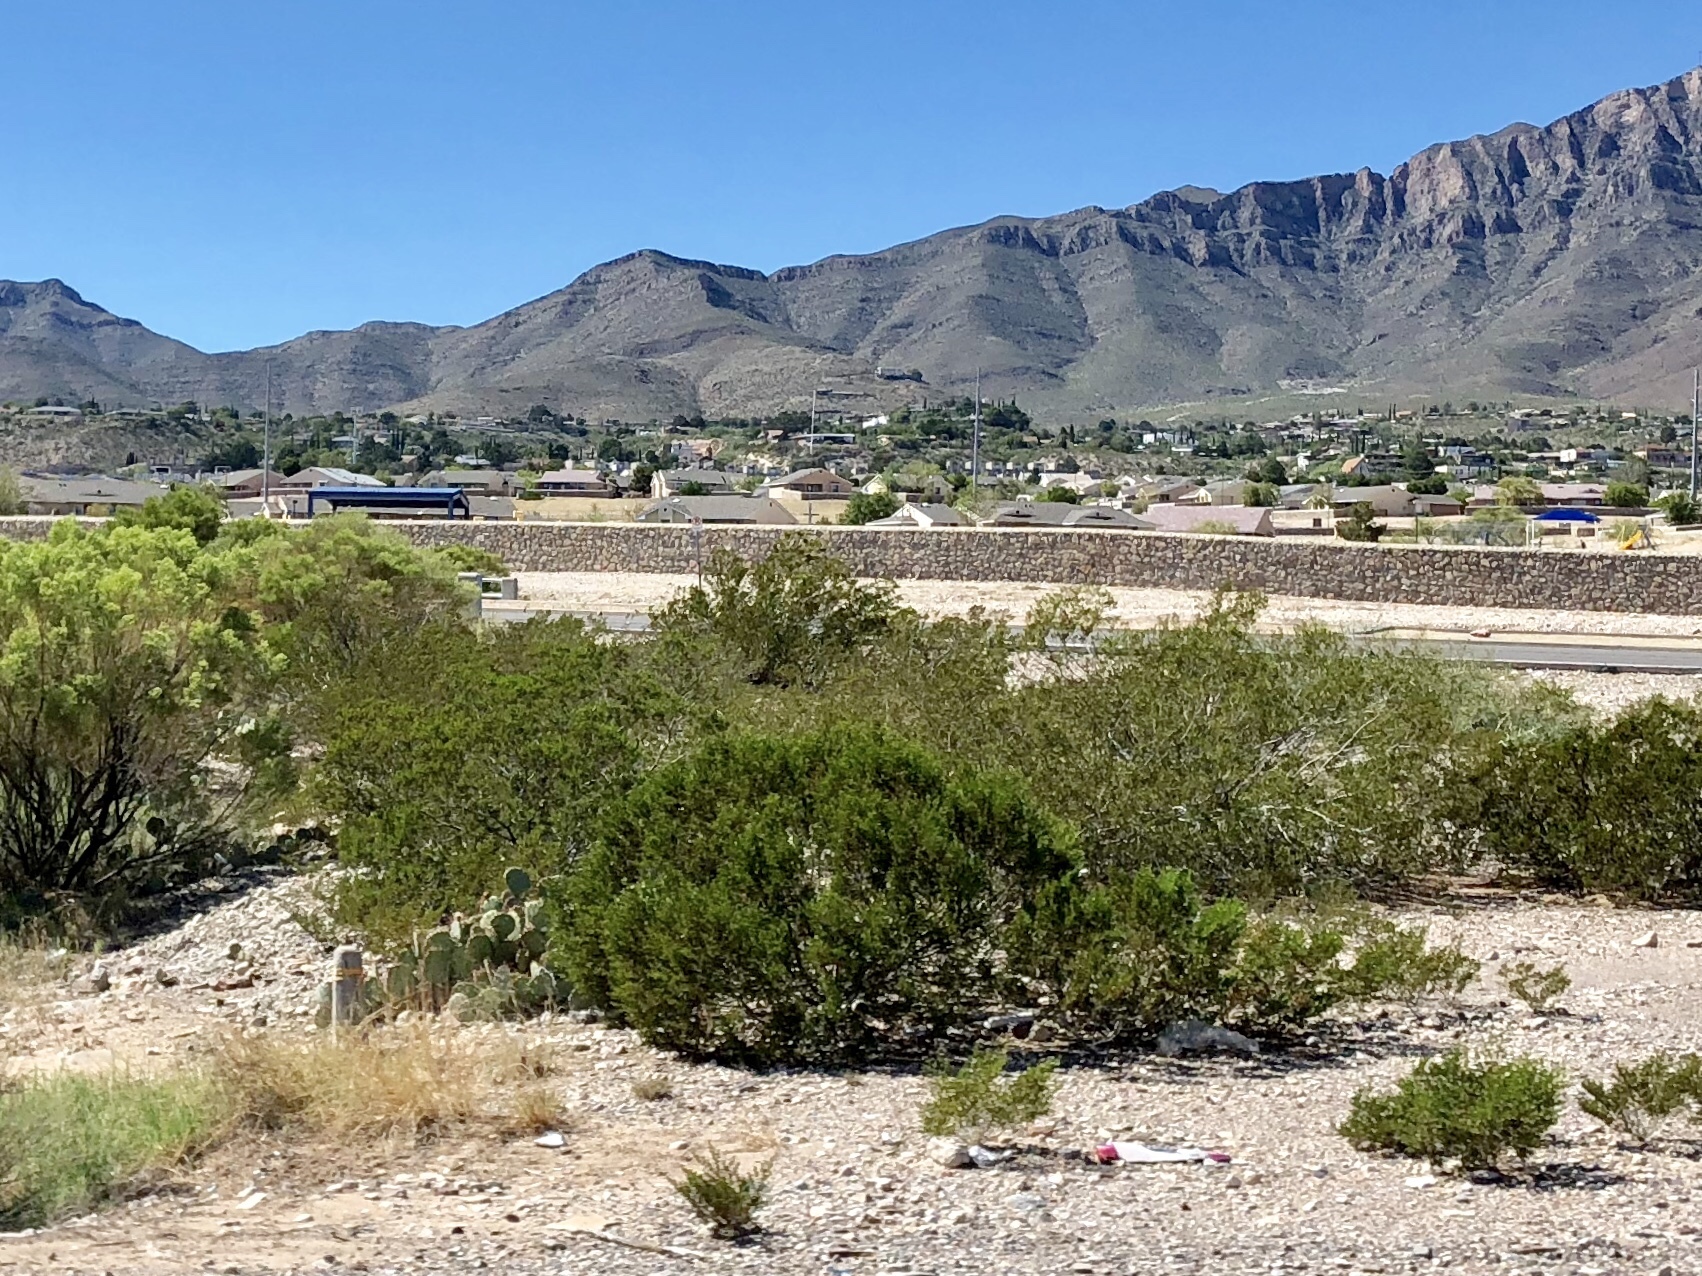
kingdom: Plantae
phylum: Tracheophyta
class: Magnoliopsida
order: Zygophyllales
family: Zygophyllaceae
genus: Larrea
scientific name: Larrea tridentata
